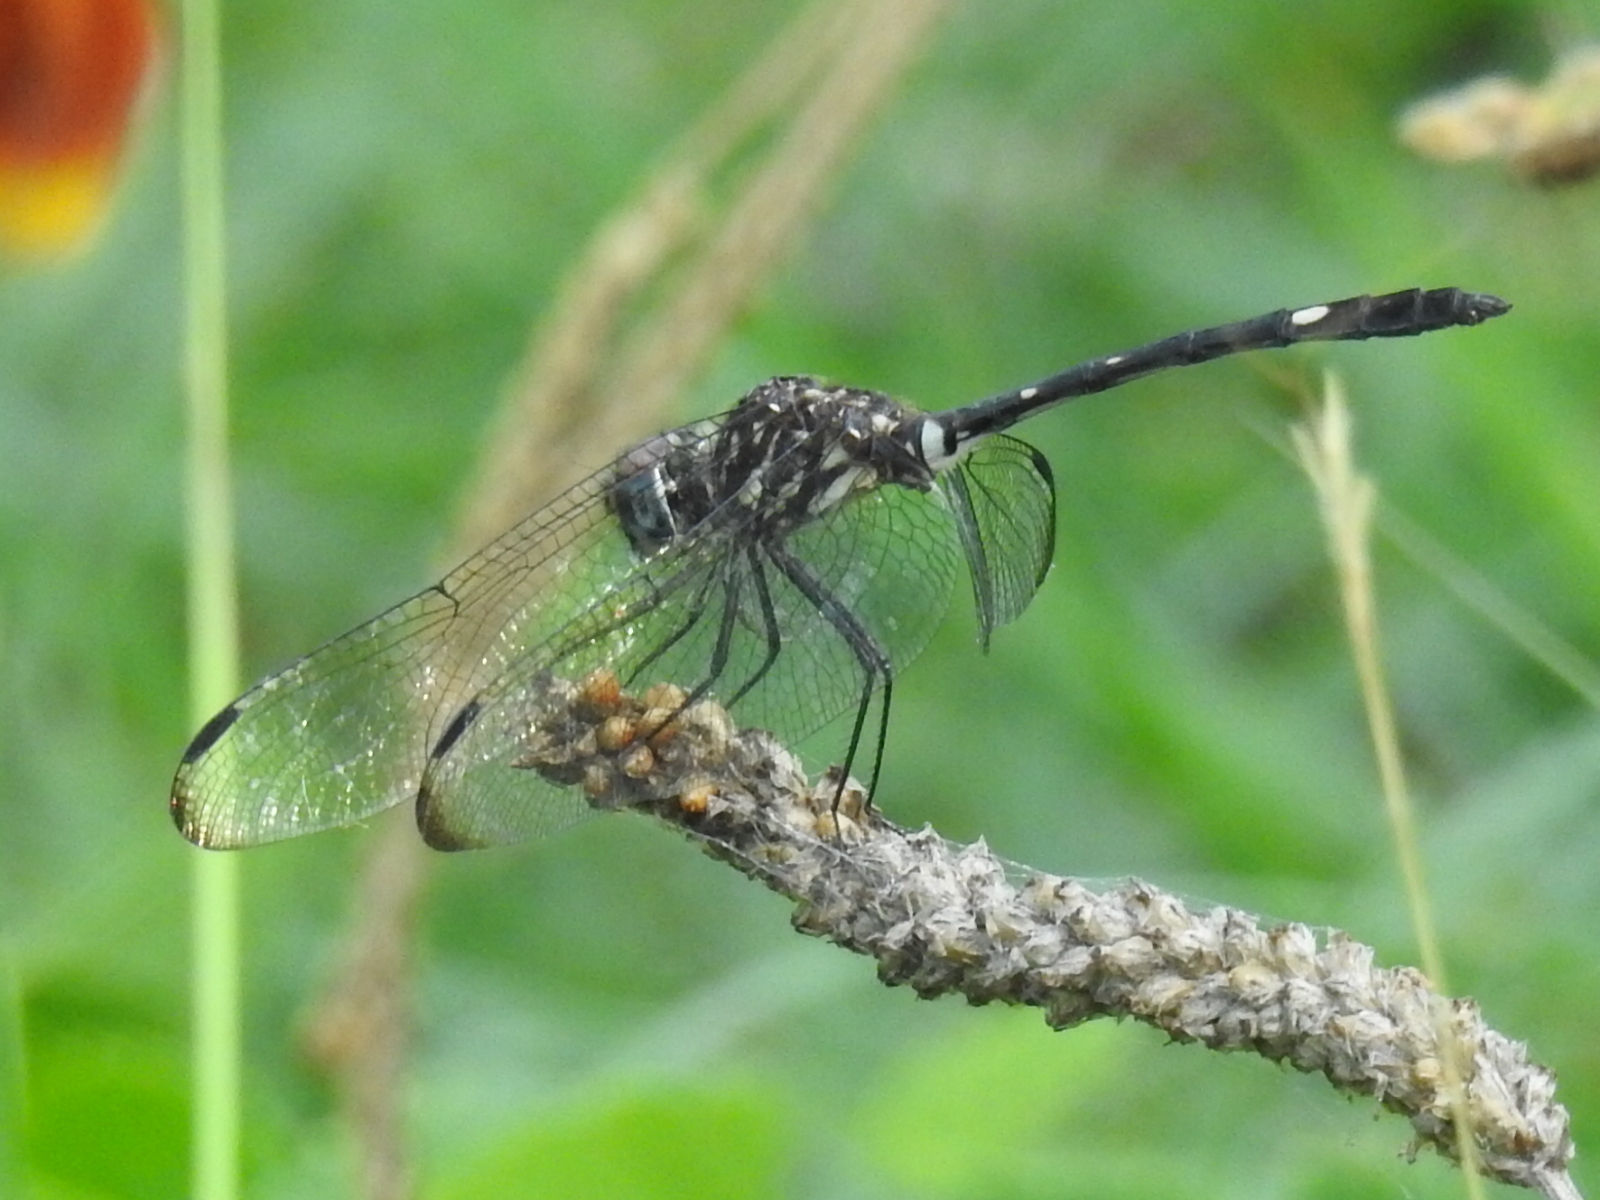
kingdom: Animalia
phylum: Arthropoda
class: Insecta
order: Odonata
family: Libellulidae
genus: Dythemis
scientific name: Dythemis velox
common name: Swift setwing
